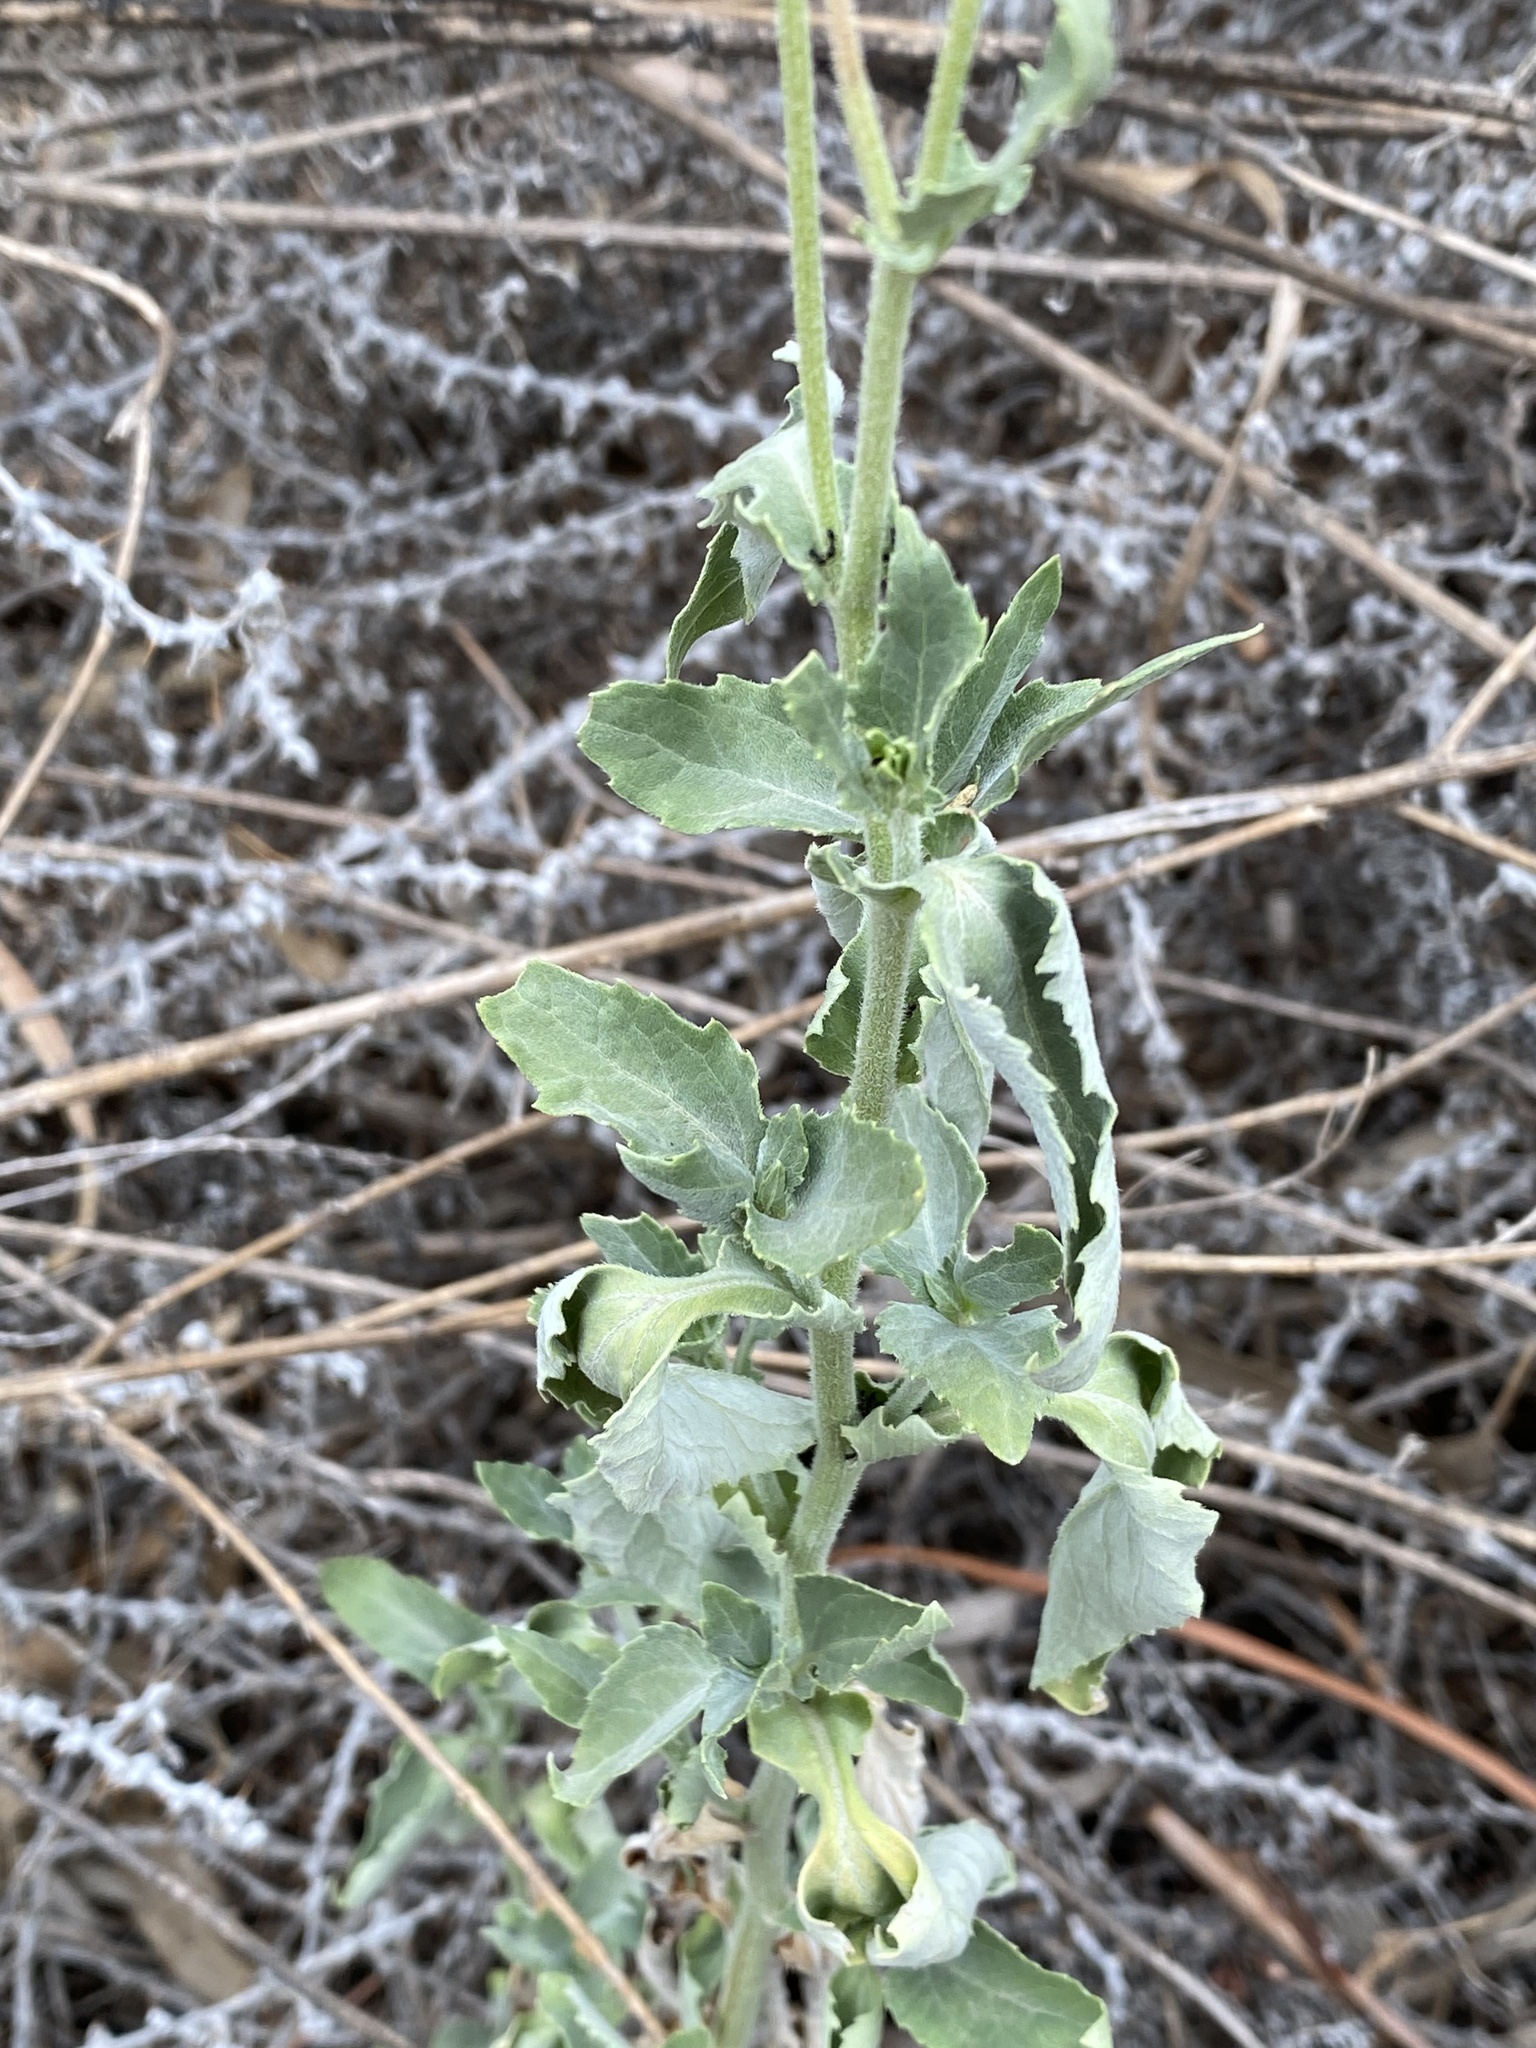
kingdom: Plantae
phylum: Tracheophyta
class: Magnoliopsida
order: Asterales
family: Asteraceae
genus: Verbesina
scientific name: Verbesina encelioides
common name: Golden crownbeard
